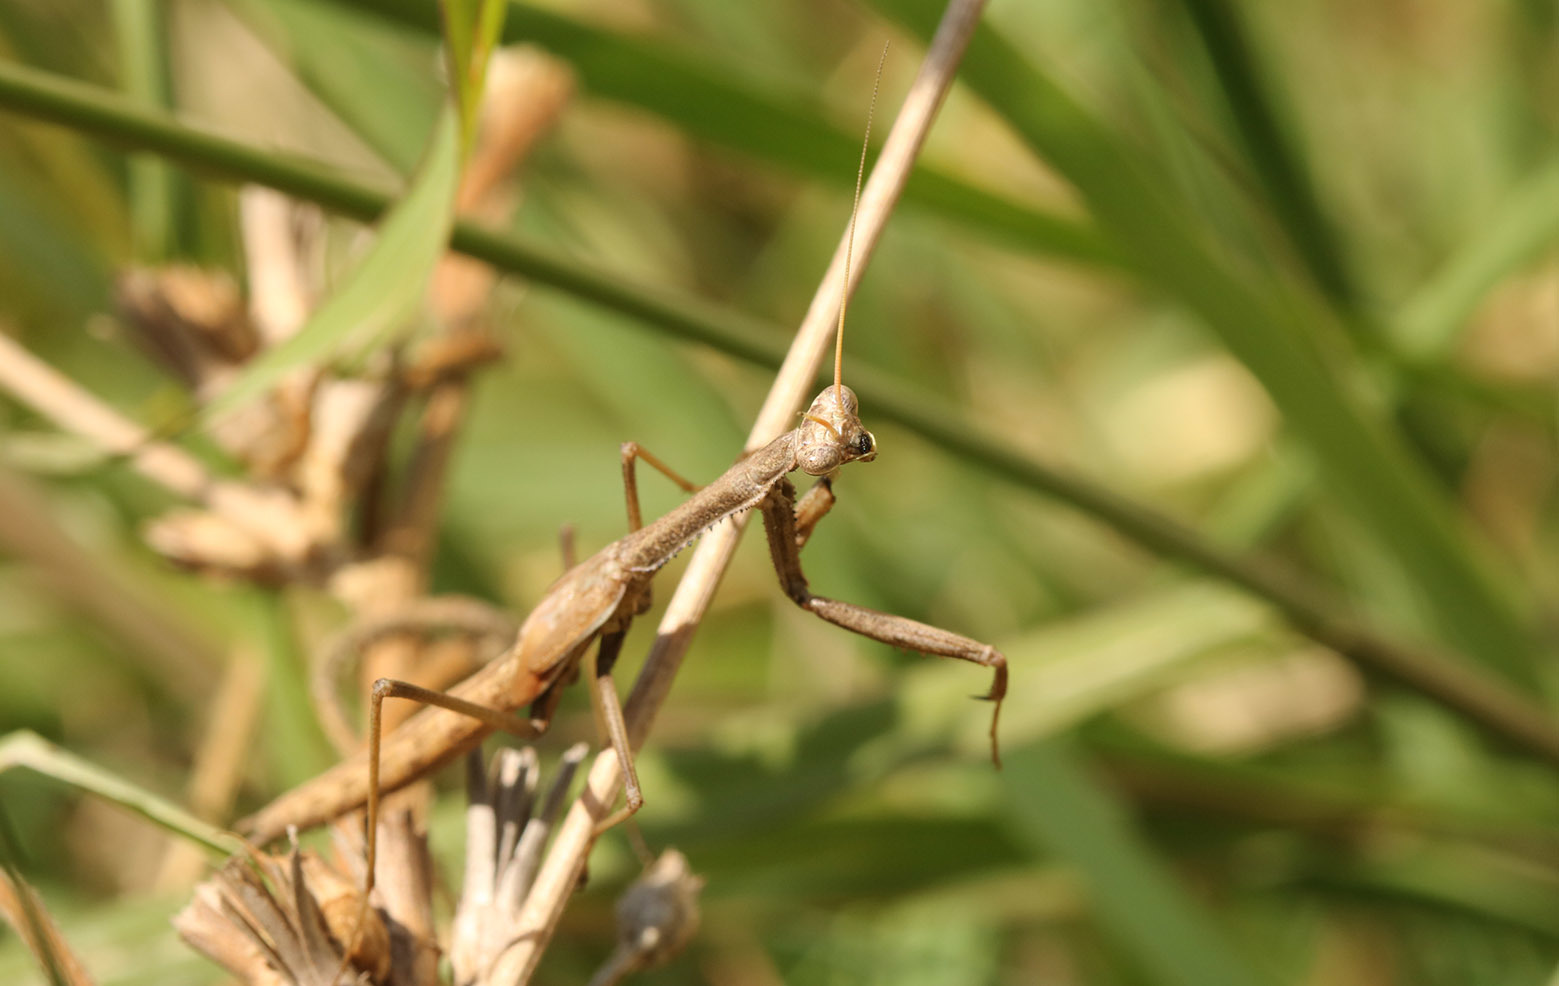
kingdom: Animalia
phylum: Arthropoda
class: Insecta
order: Mantodea
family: Coptopterygidae
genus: Coptopteryx
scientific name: Coptopteryx gayi
